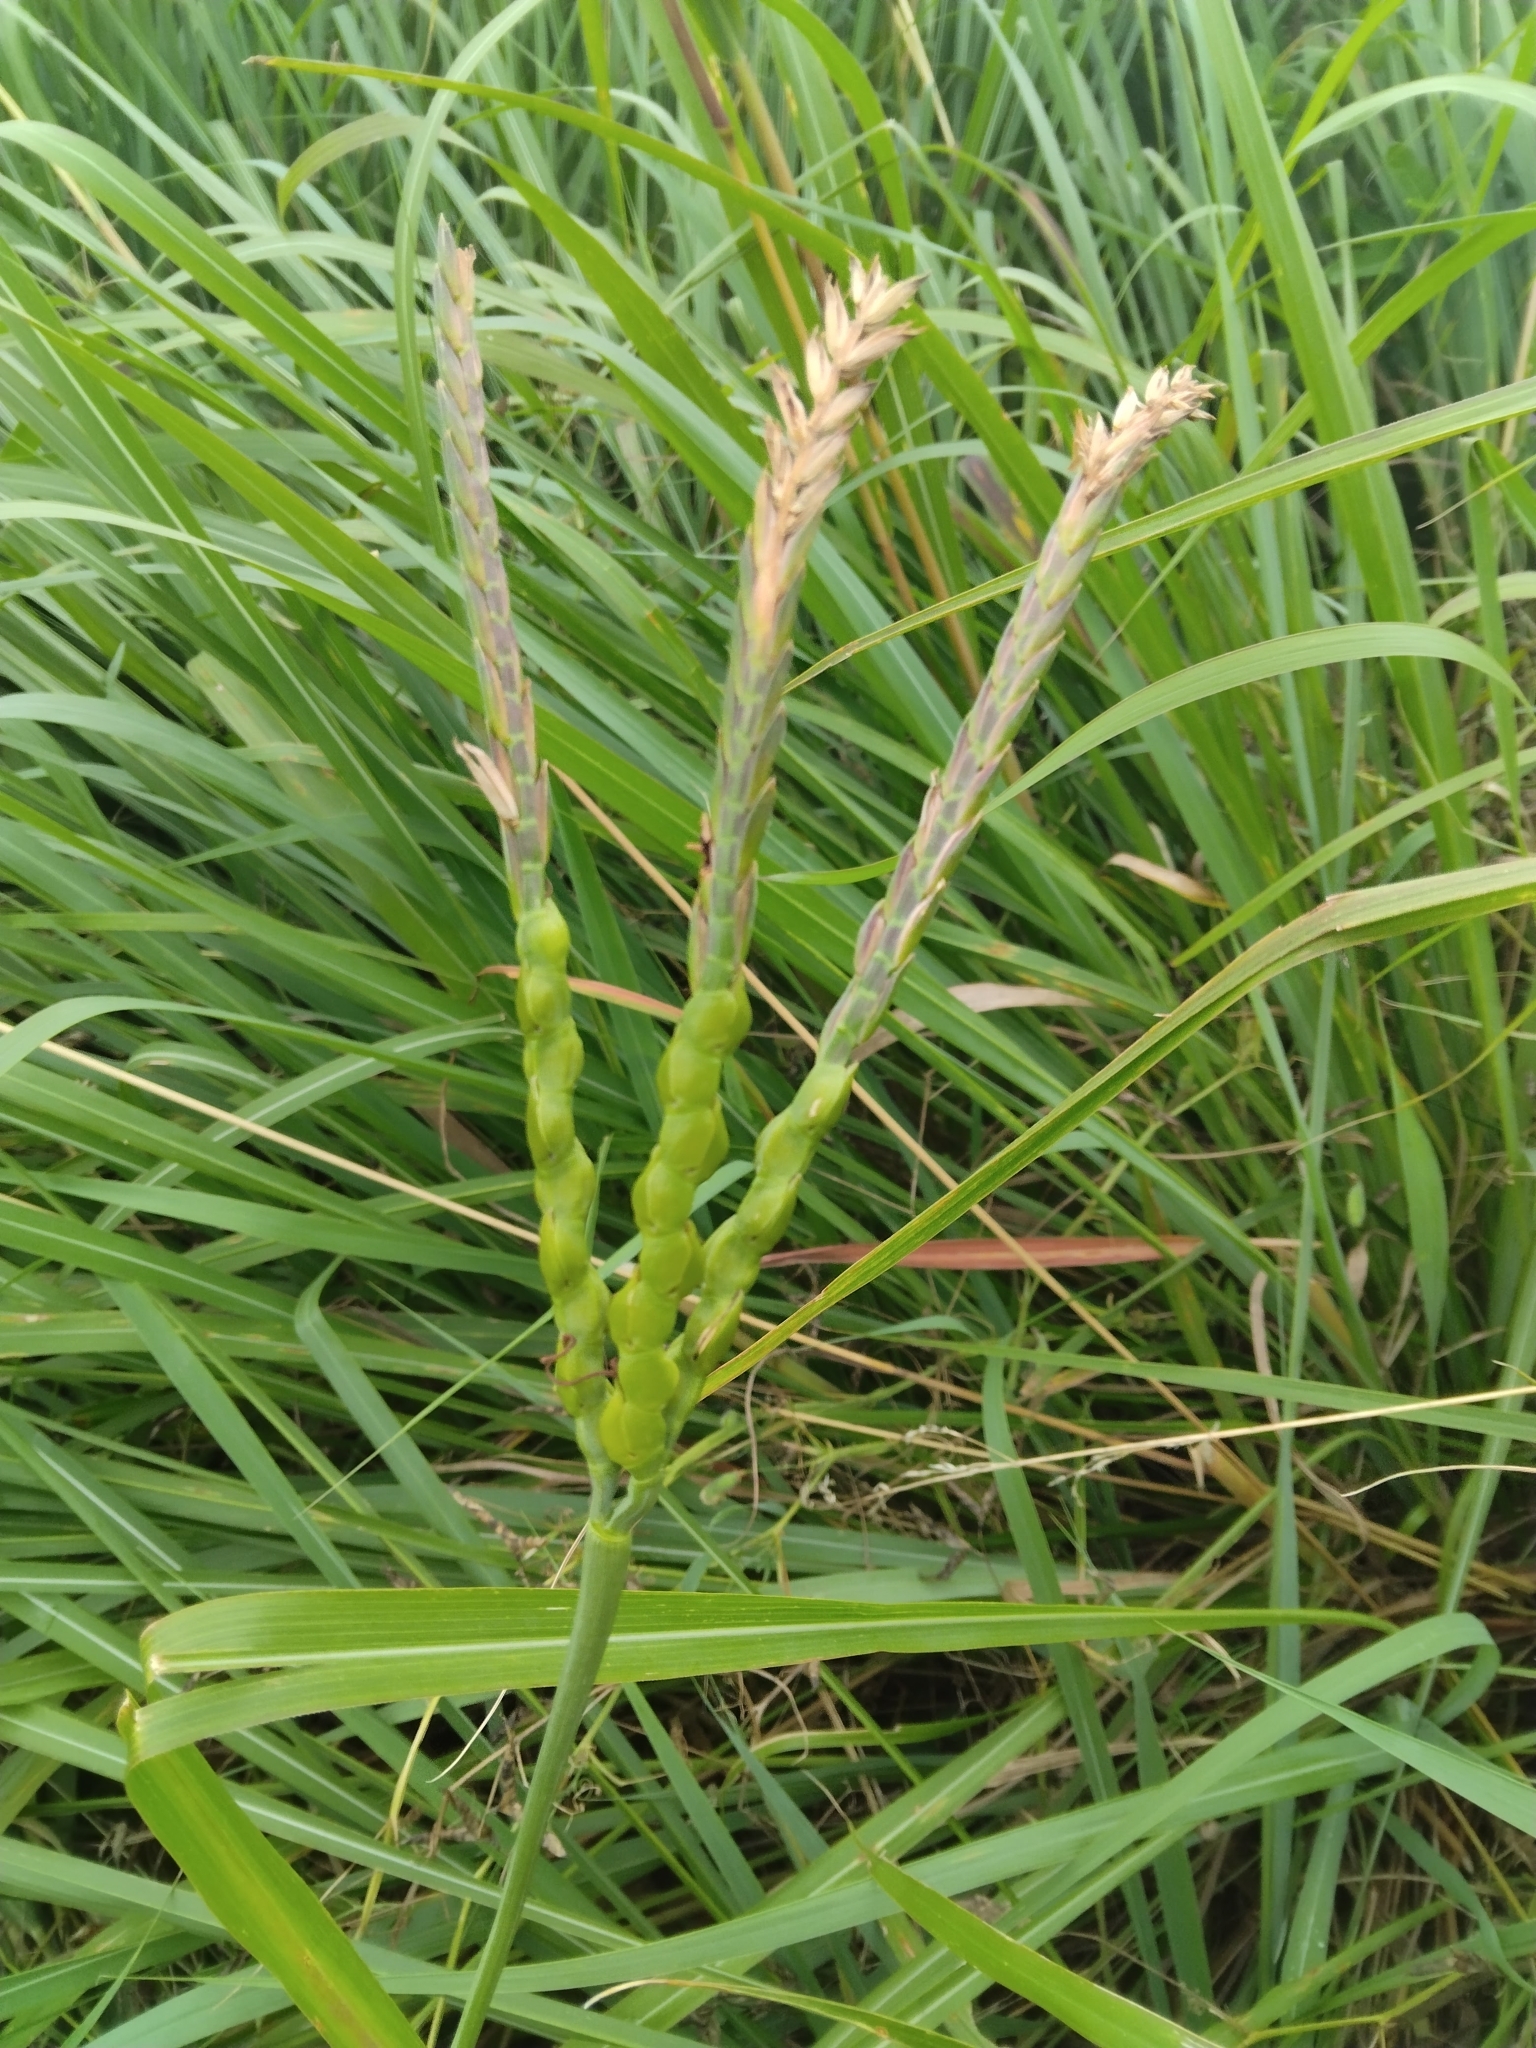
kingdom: Plantae
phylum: Tracheophyta
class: Liliopsida
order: Poales
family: Poaceae
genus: Tripsacum
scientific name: Tripsacum dactyloides
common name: Buffalo-grass
